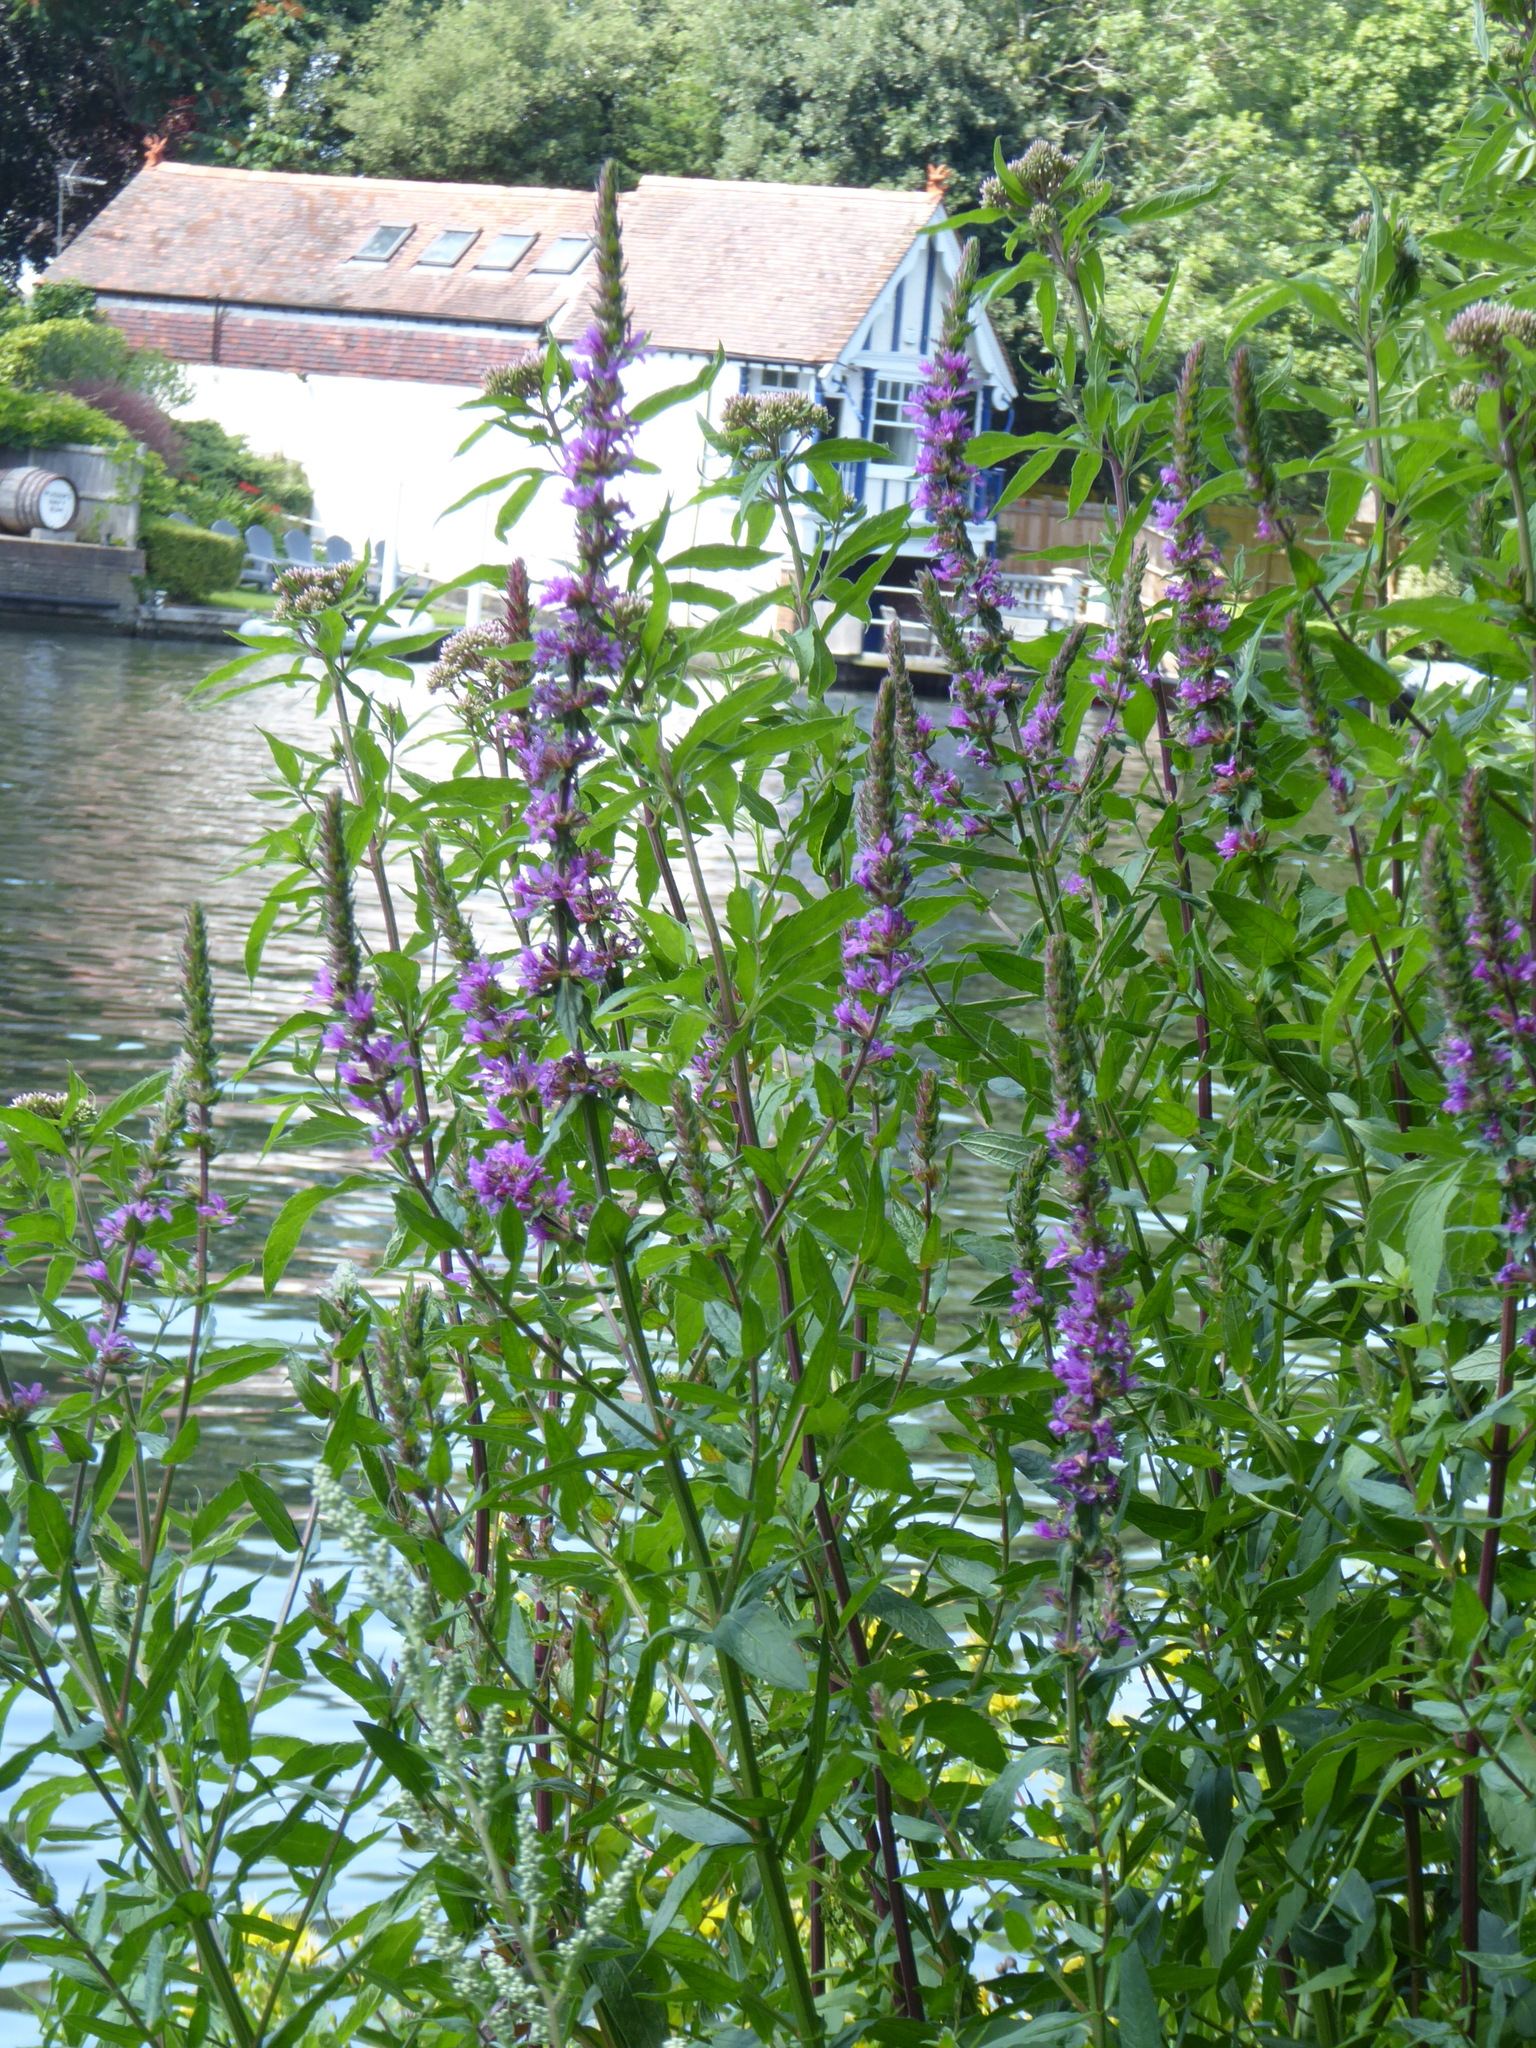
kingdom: Plantae
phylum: Tracheophyta
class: Magnoliopsida
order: Myrtales
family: Lythraceae
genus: Lythrum
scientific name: Lythrum salicaria
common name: Purple loosestrife
